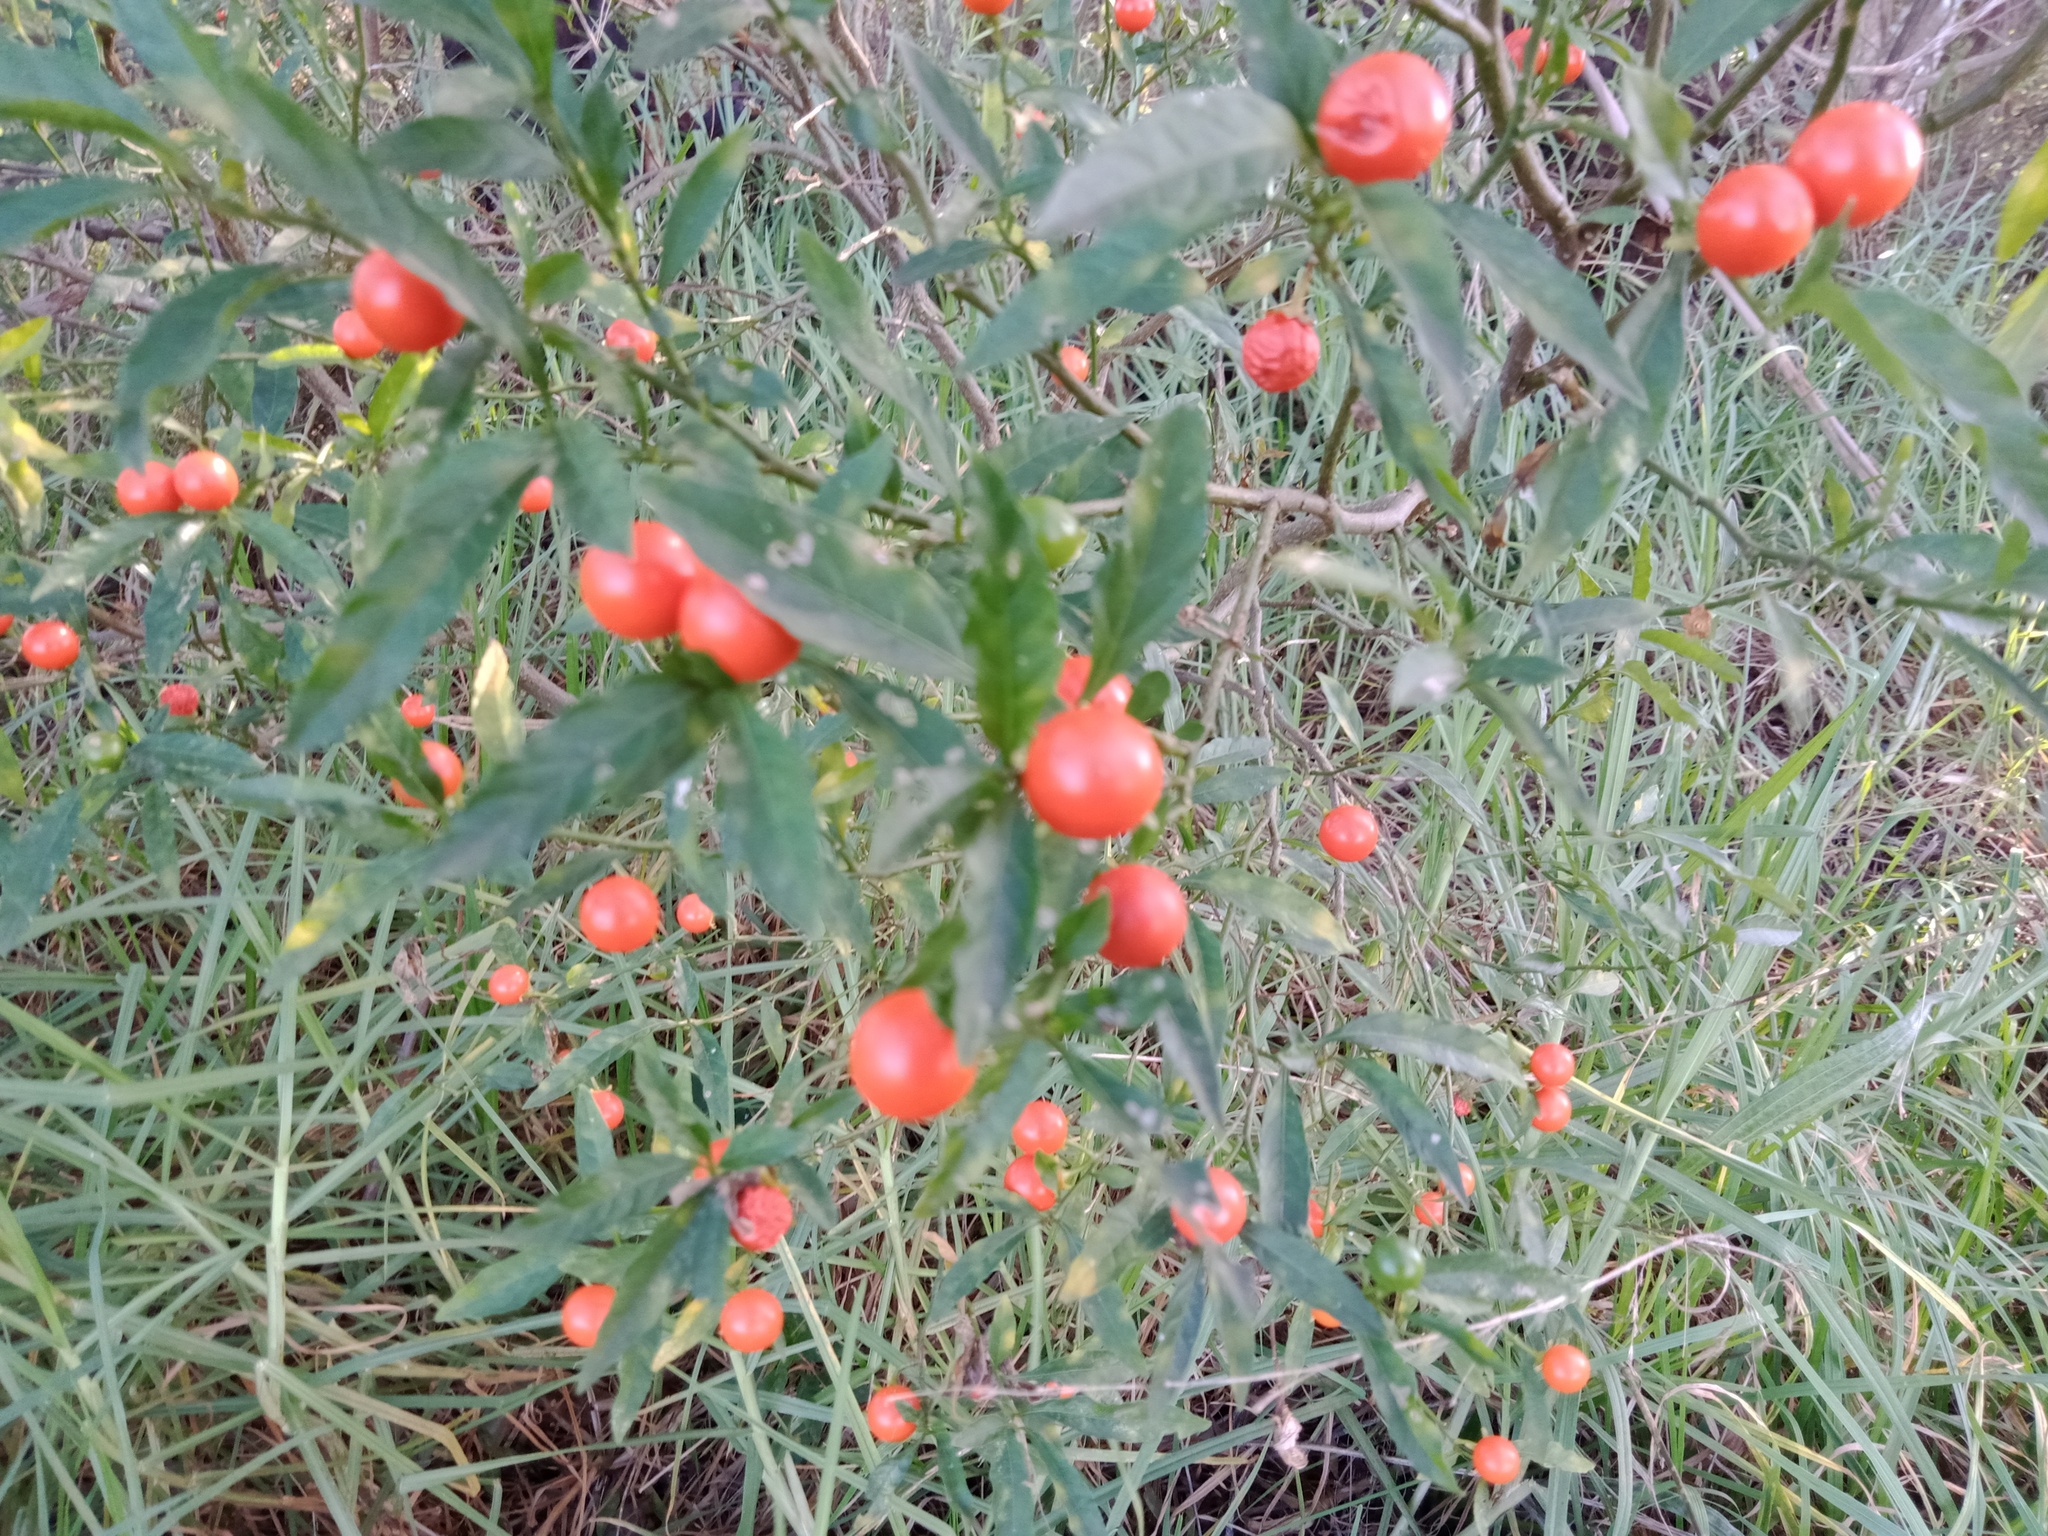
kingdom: Plantae
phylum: Tracheophyta
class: Magnoliopsida
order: Solanales
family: Solanaceae
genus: Solanum
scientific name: Solanum pseudocapsicum
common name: Jerusalem cherry
